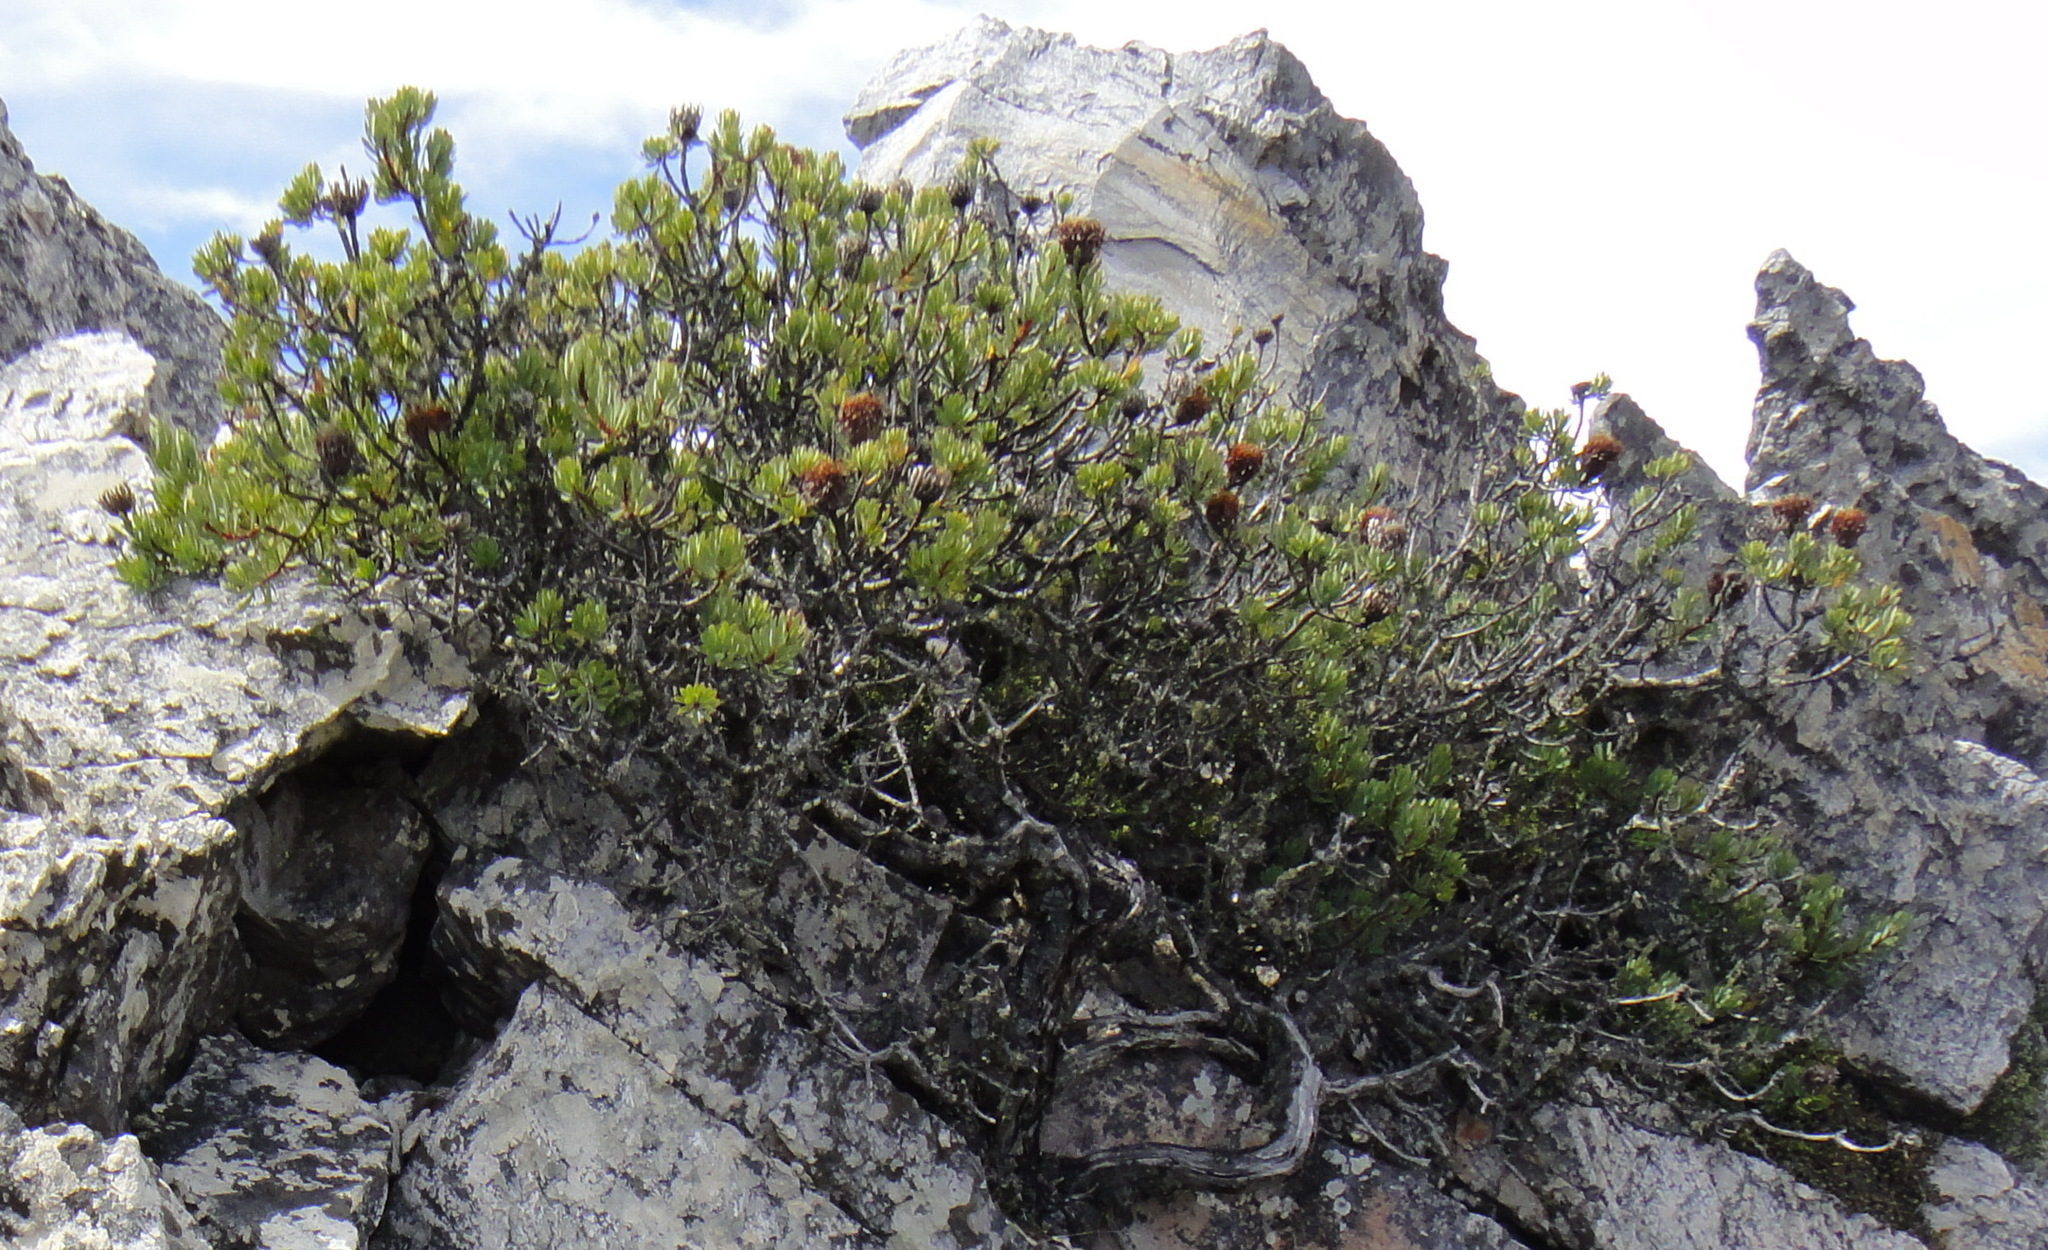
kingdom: Plantae
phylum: Tracheophyta
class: Magnoliopsida
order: Proteales
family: Proteaceae
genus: Protea
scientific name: Protea rupicola
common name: Krantz protea
